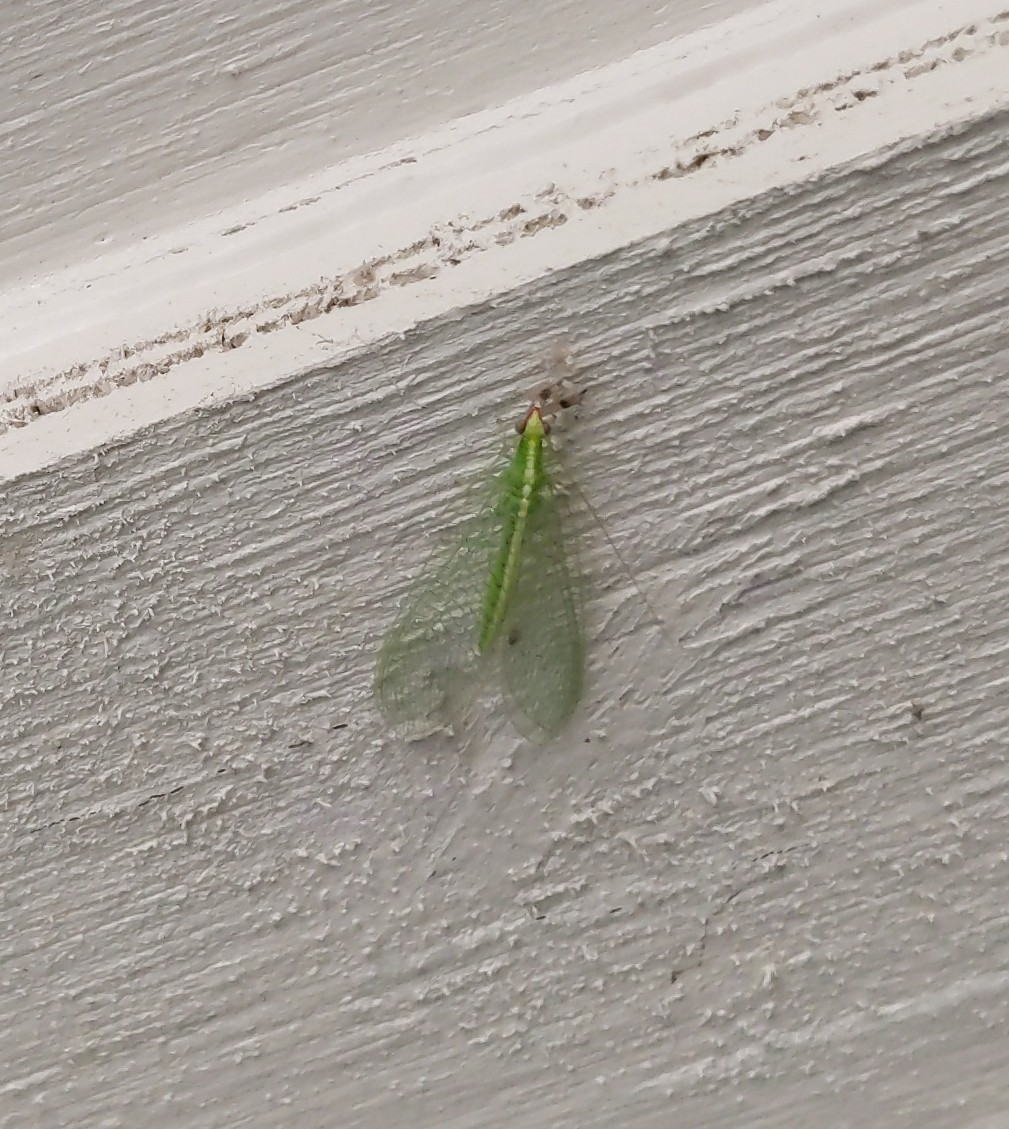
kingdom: Animalia
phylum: Arthropoda
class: Insecta
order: Neuroptera
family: Chrysopidae
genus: Chrysoperla
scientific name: Chrysoperla rufilabris
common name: Red-lipped green lacewing
